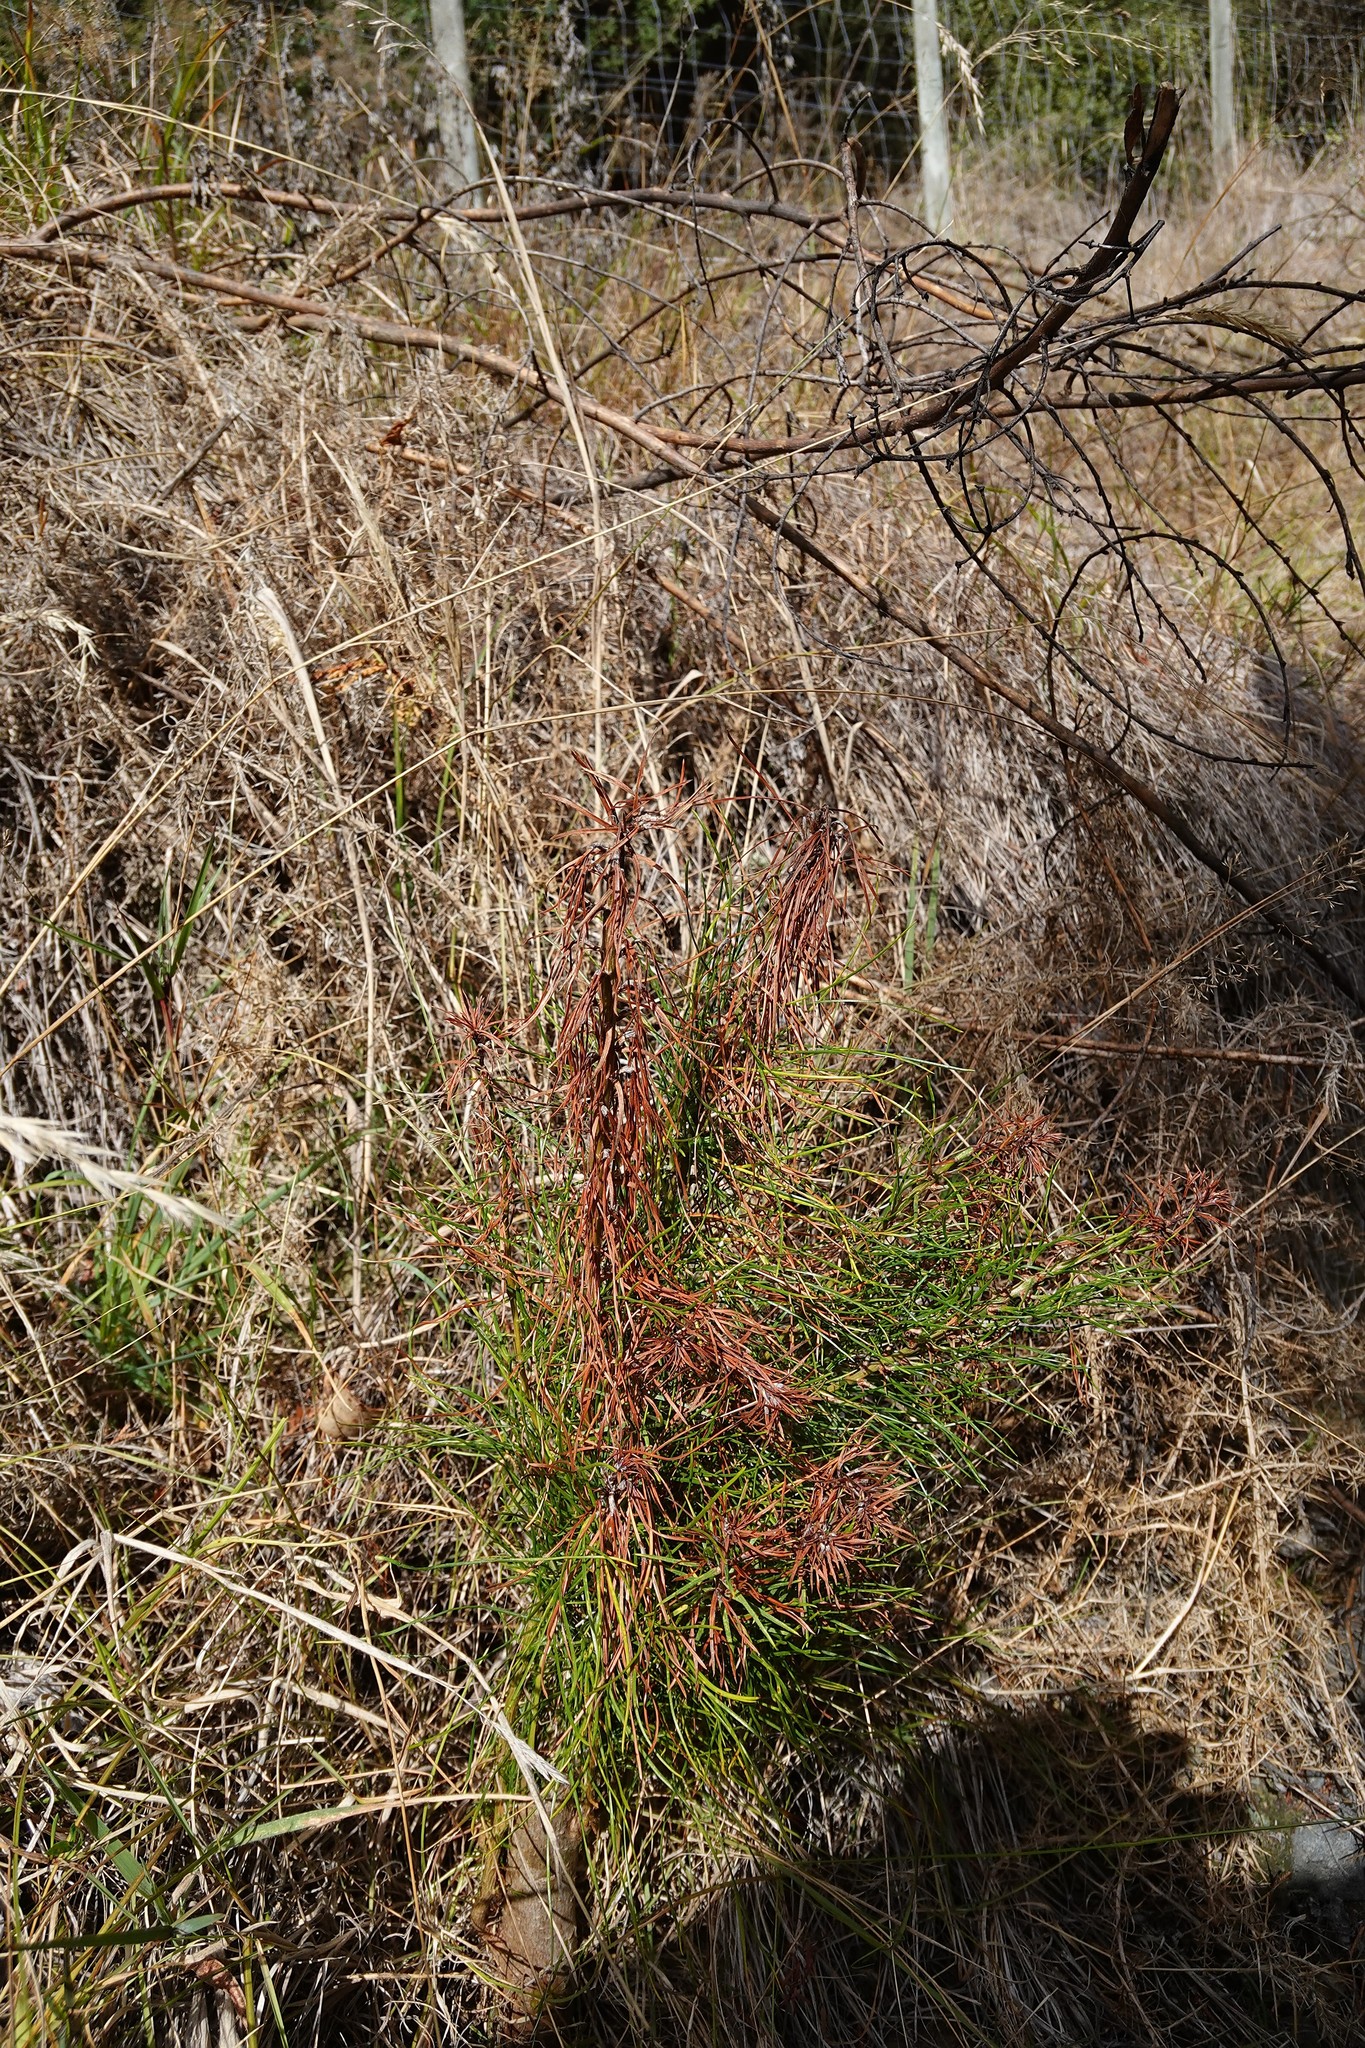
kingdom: Plantae
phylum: Tracheophyta
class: Pinopsida
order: Pinales
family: Pinaceae
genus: Pinus
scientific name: Pinus
